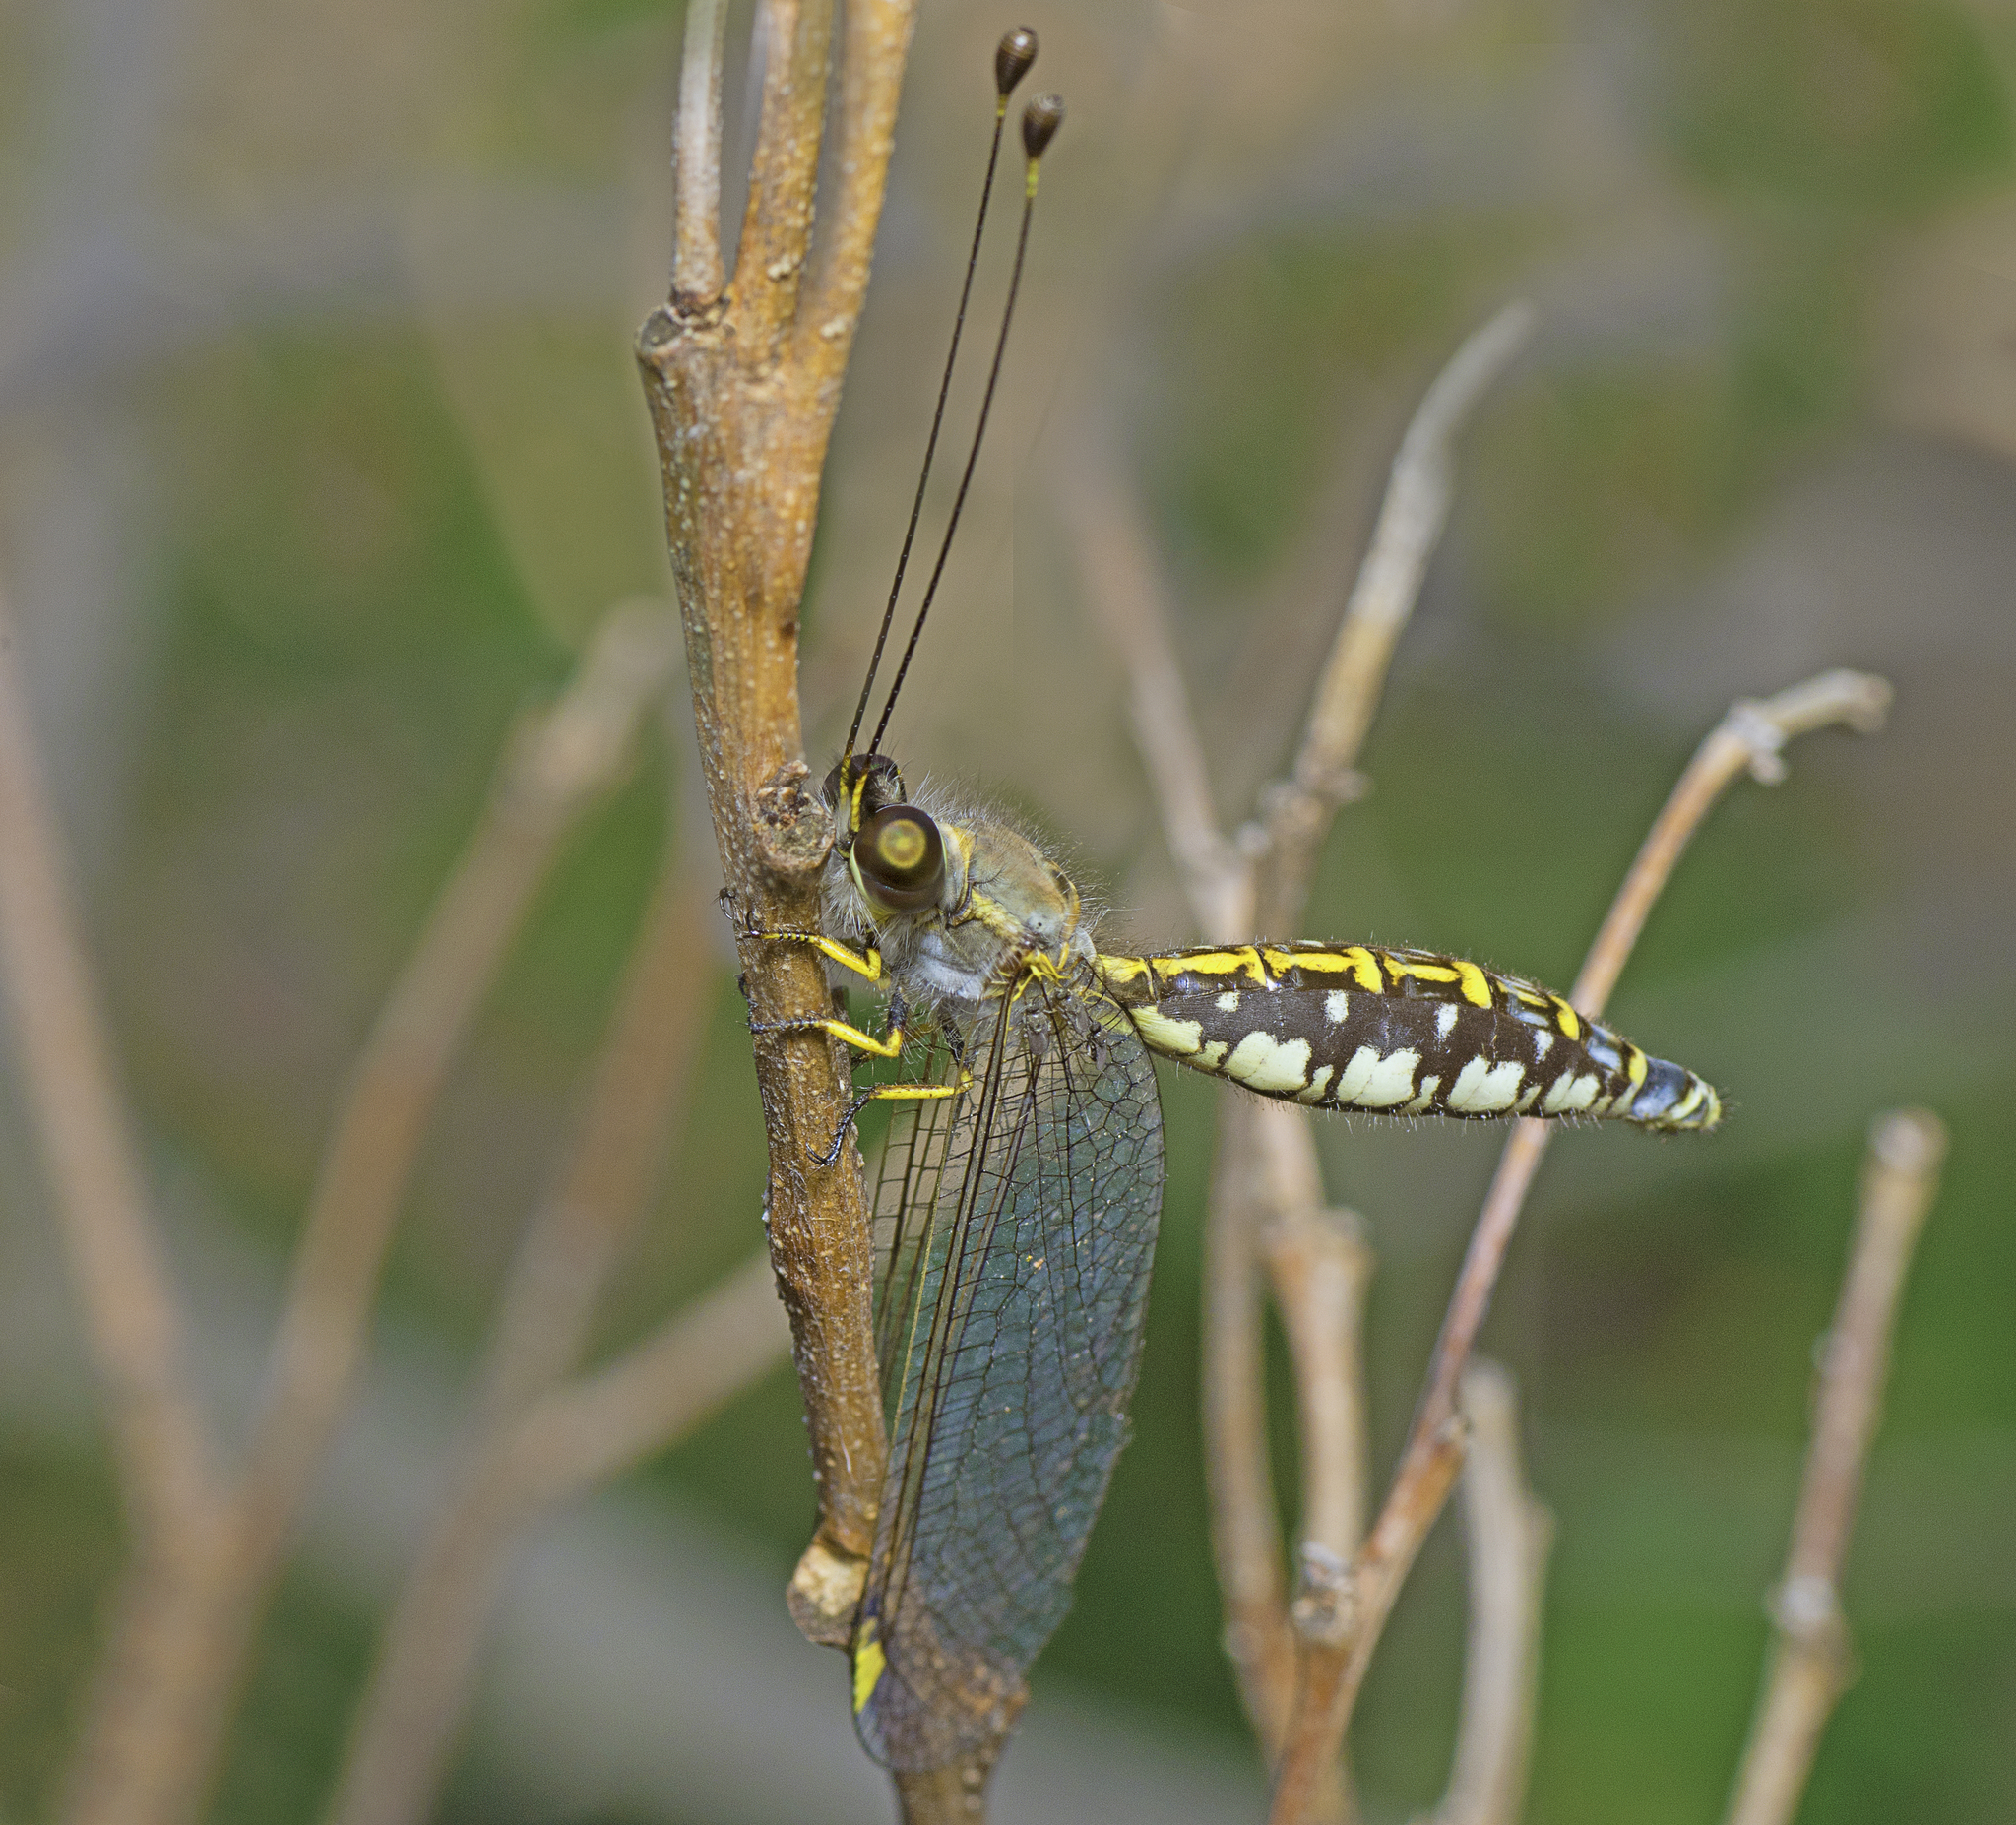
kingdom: Animalia
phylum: Arthropoda
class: Insecta
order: Neuroptera
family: Ascalaphidae
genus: Suhpalacsa
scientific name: Suhpalacsa flavipes
